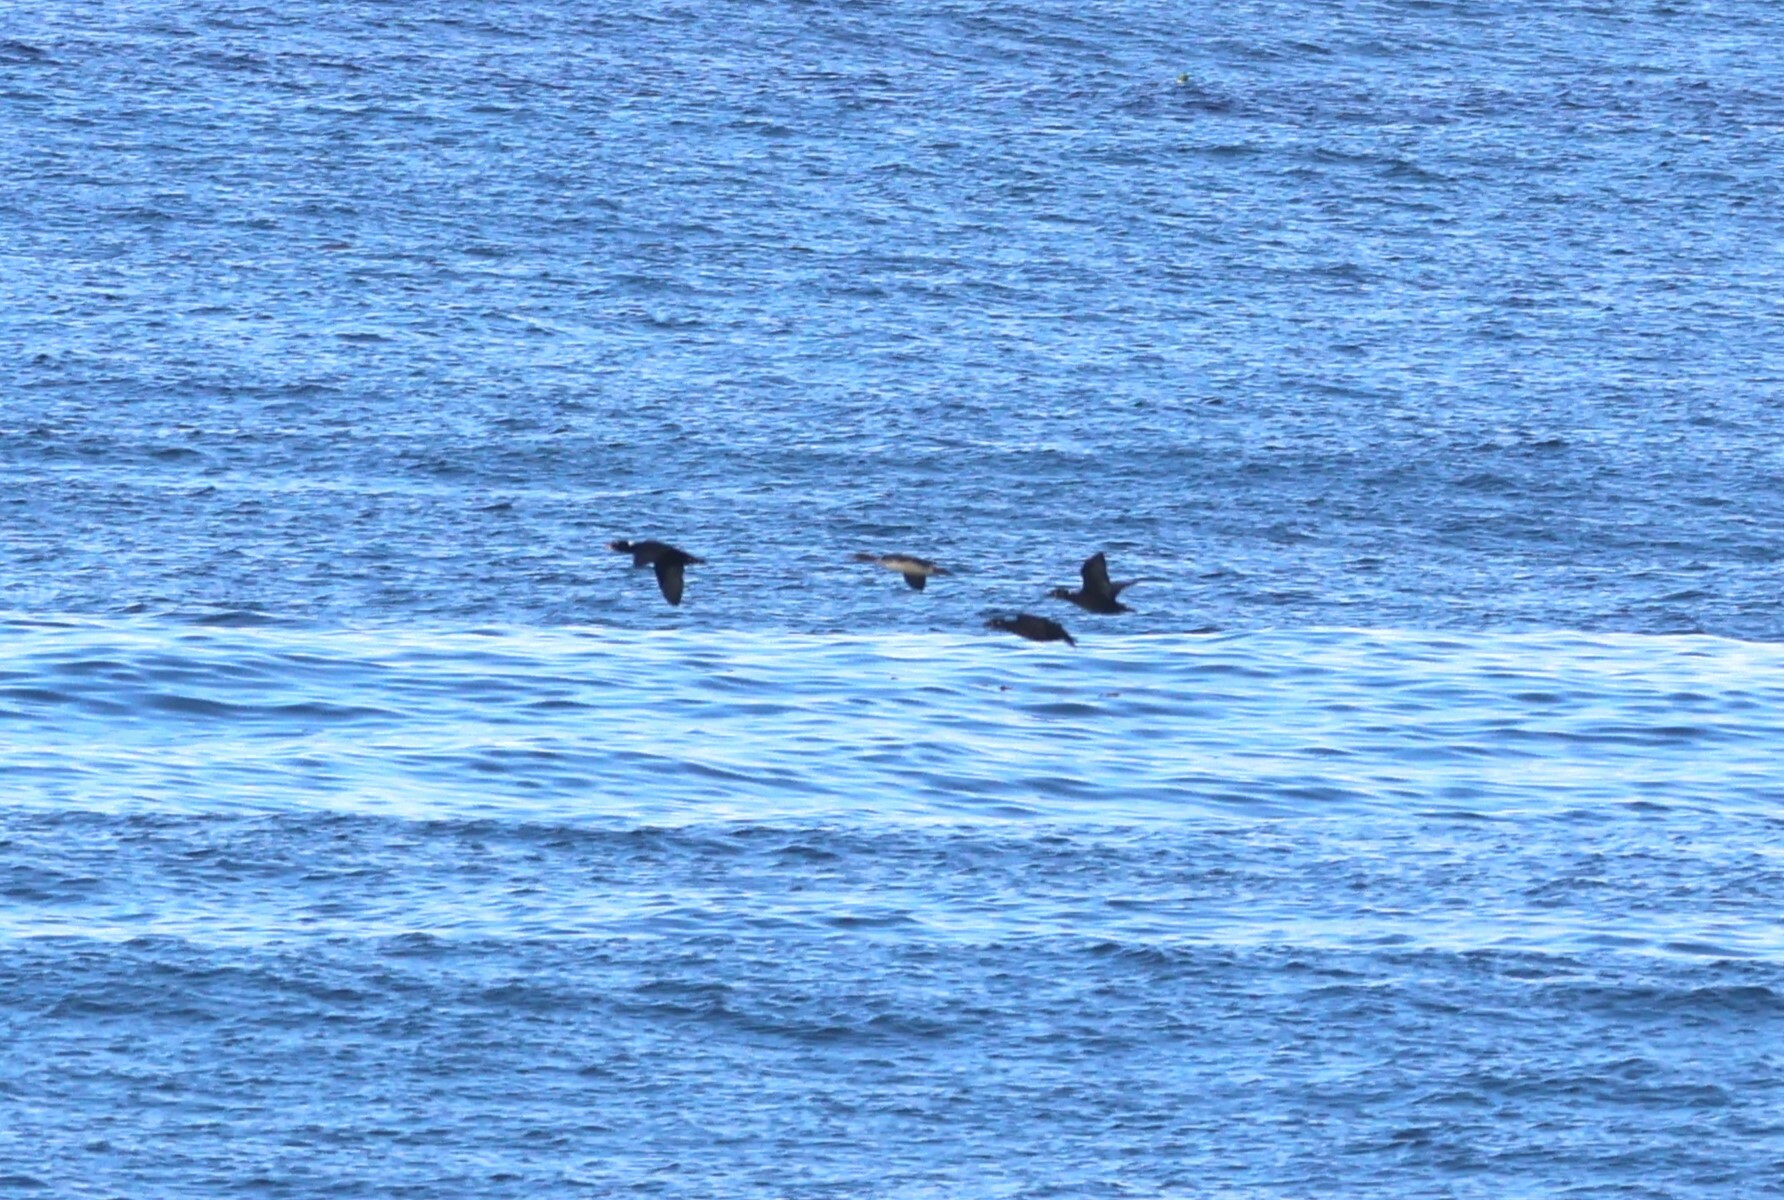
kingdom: Animalia
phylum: Chordata
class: Aves
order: Anseriformes
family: Anatidae
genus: Melanitta
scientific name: Melanitta perspicillata
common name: Surf scoter
